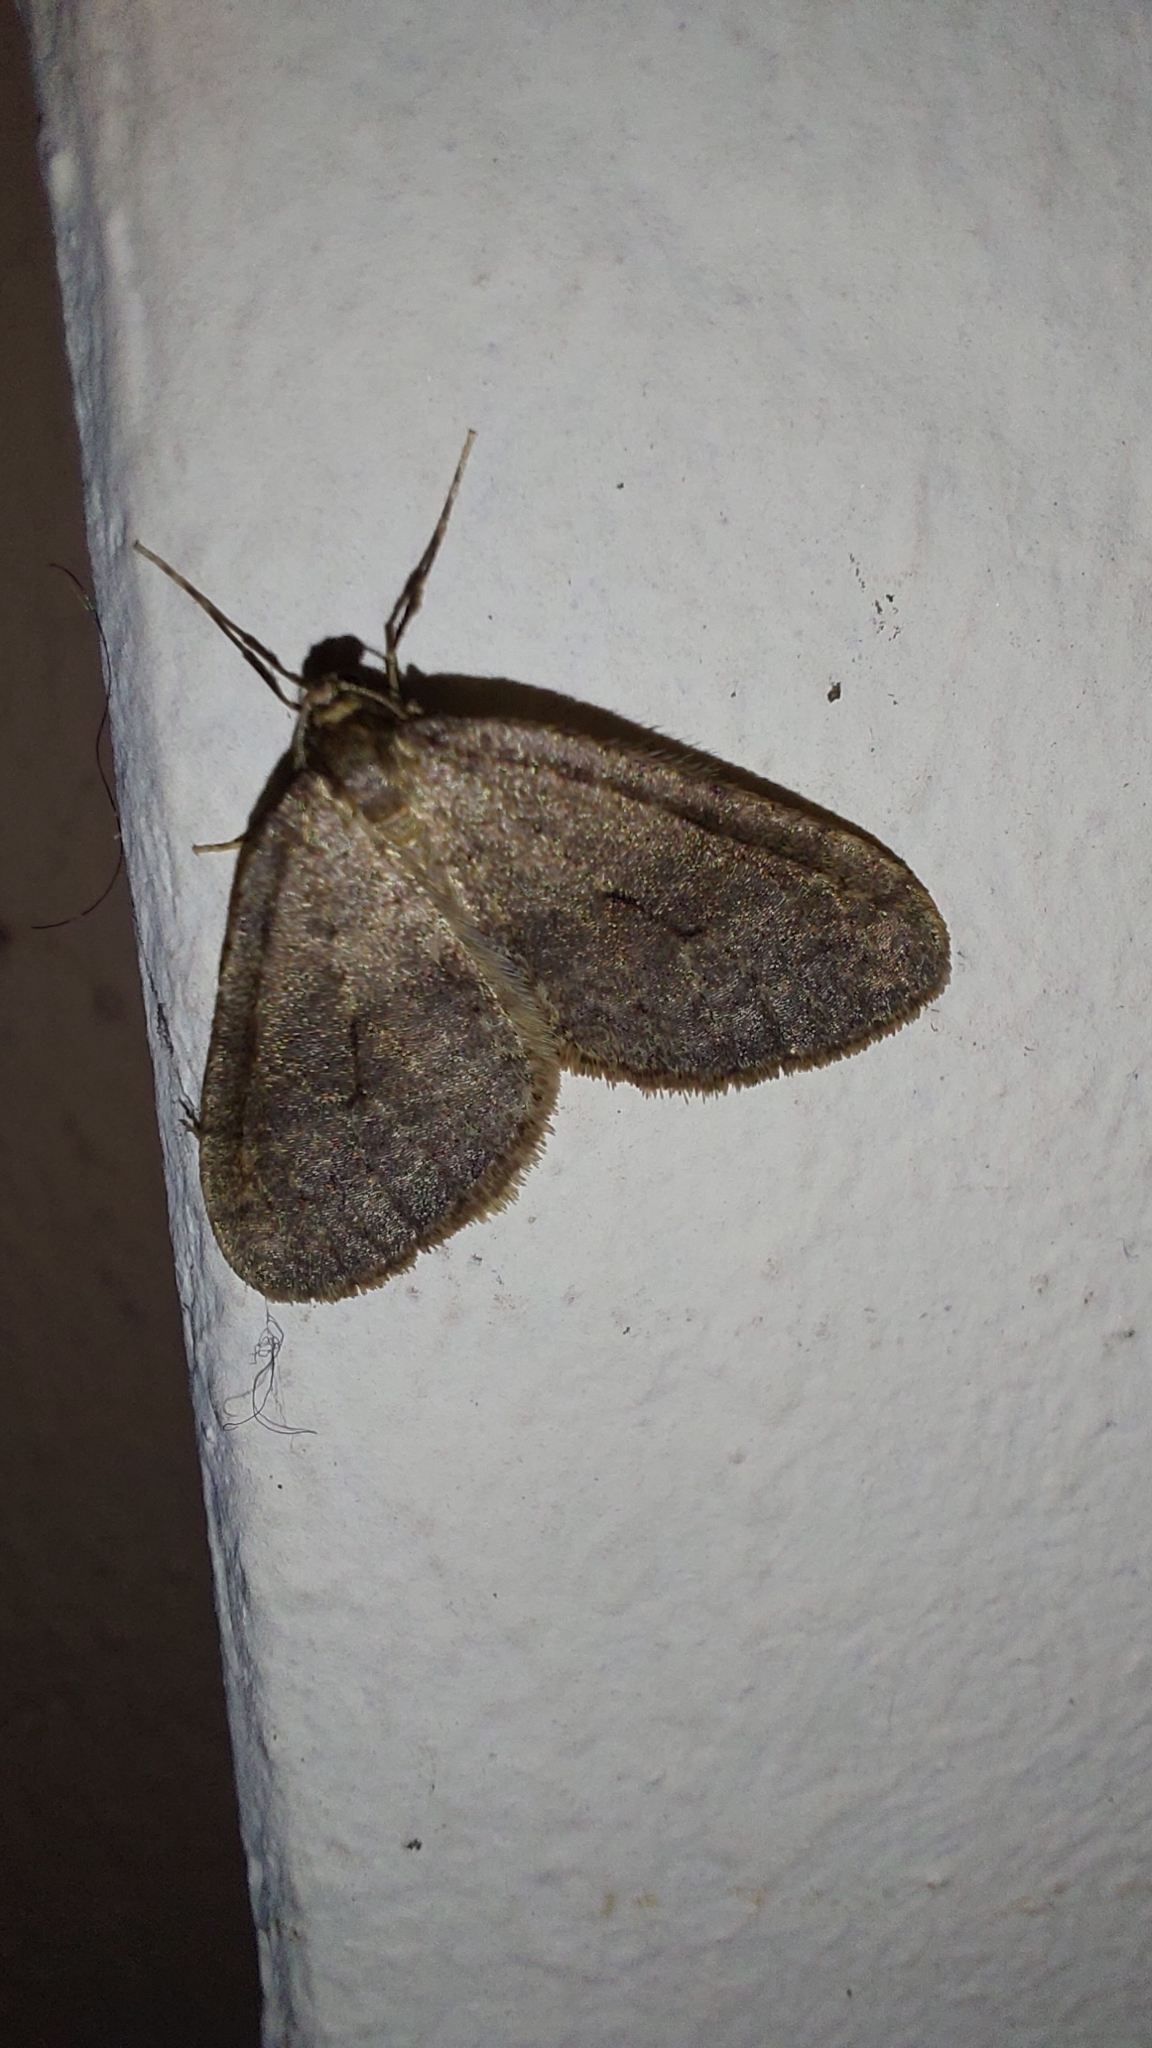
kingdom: Animalia
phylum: Arthropoda
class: Insecta
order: Lepidoptera
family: Geometridae
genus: Operophtera
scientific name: Operophtera brumata
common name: Winter moth
